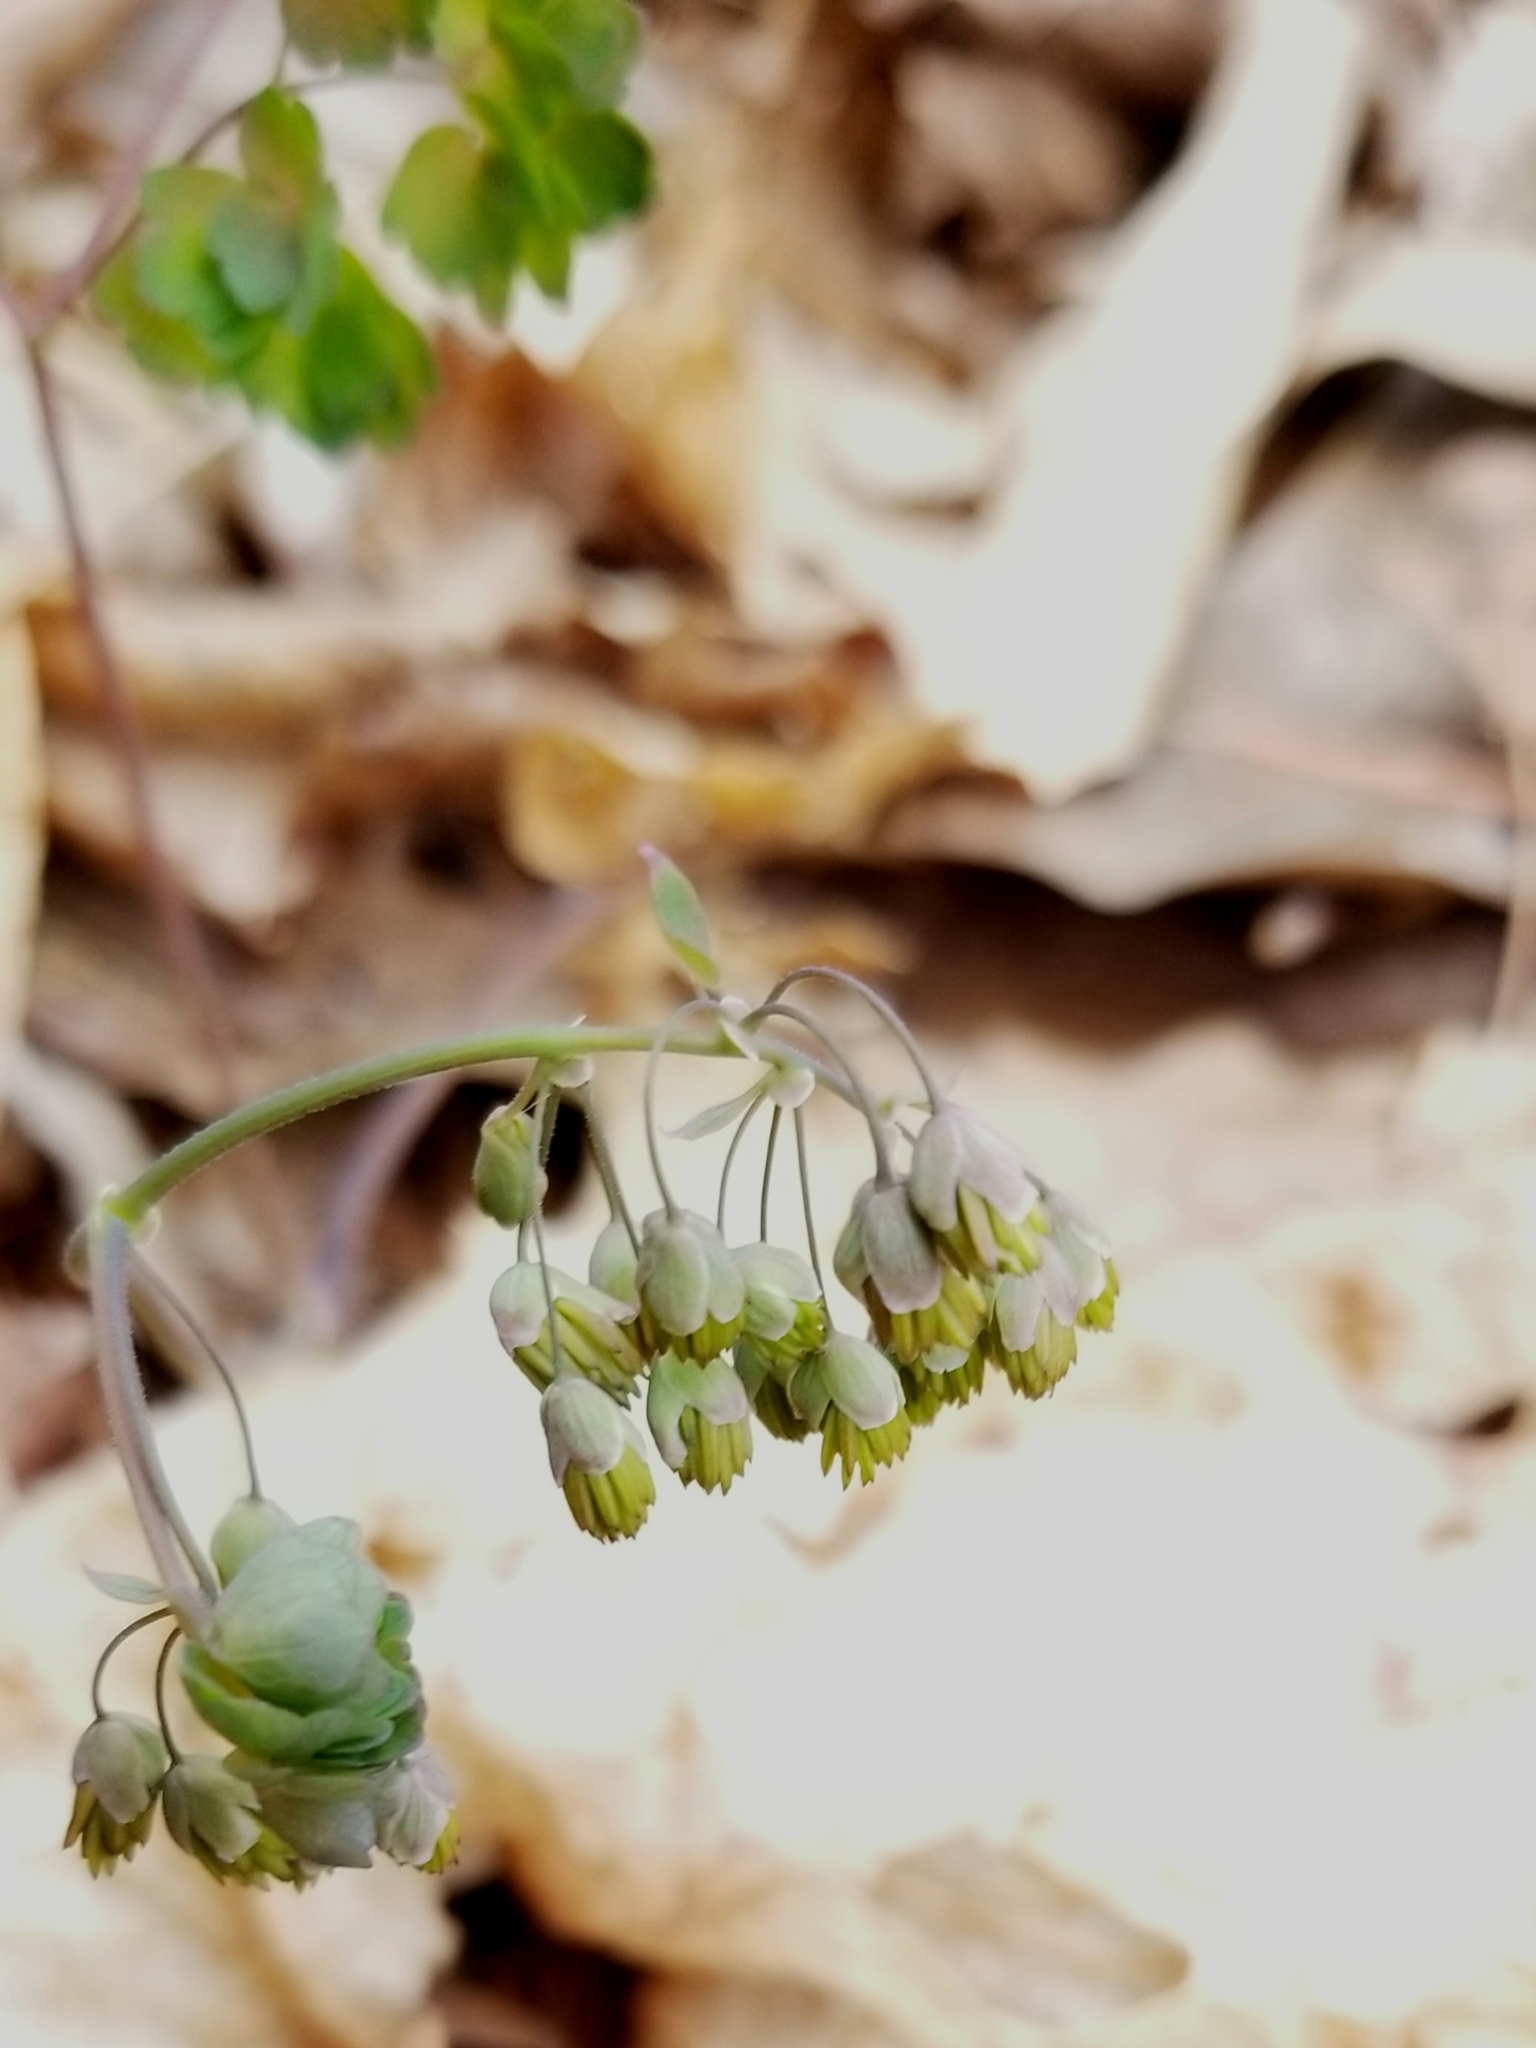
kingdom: Plantae
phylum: Tracheophyta
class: Magnoliopsida
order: Ranunculales
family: Ranunculaceae
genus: Thalictrum
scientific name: Thalictrum dioicum
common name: Early meadow-rue
